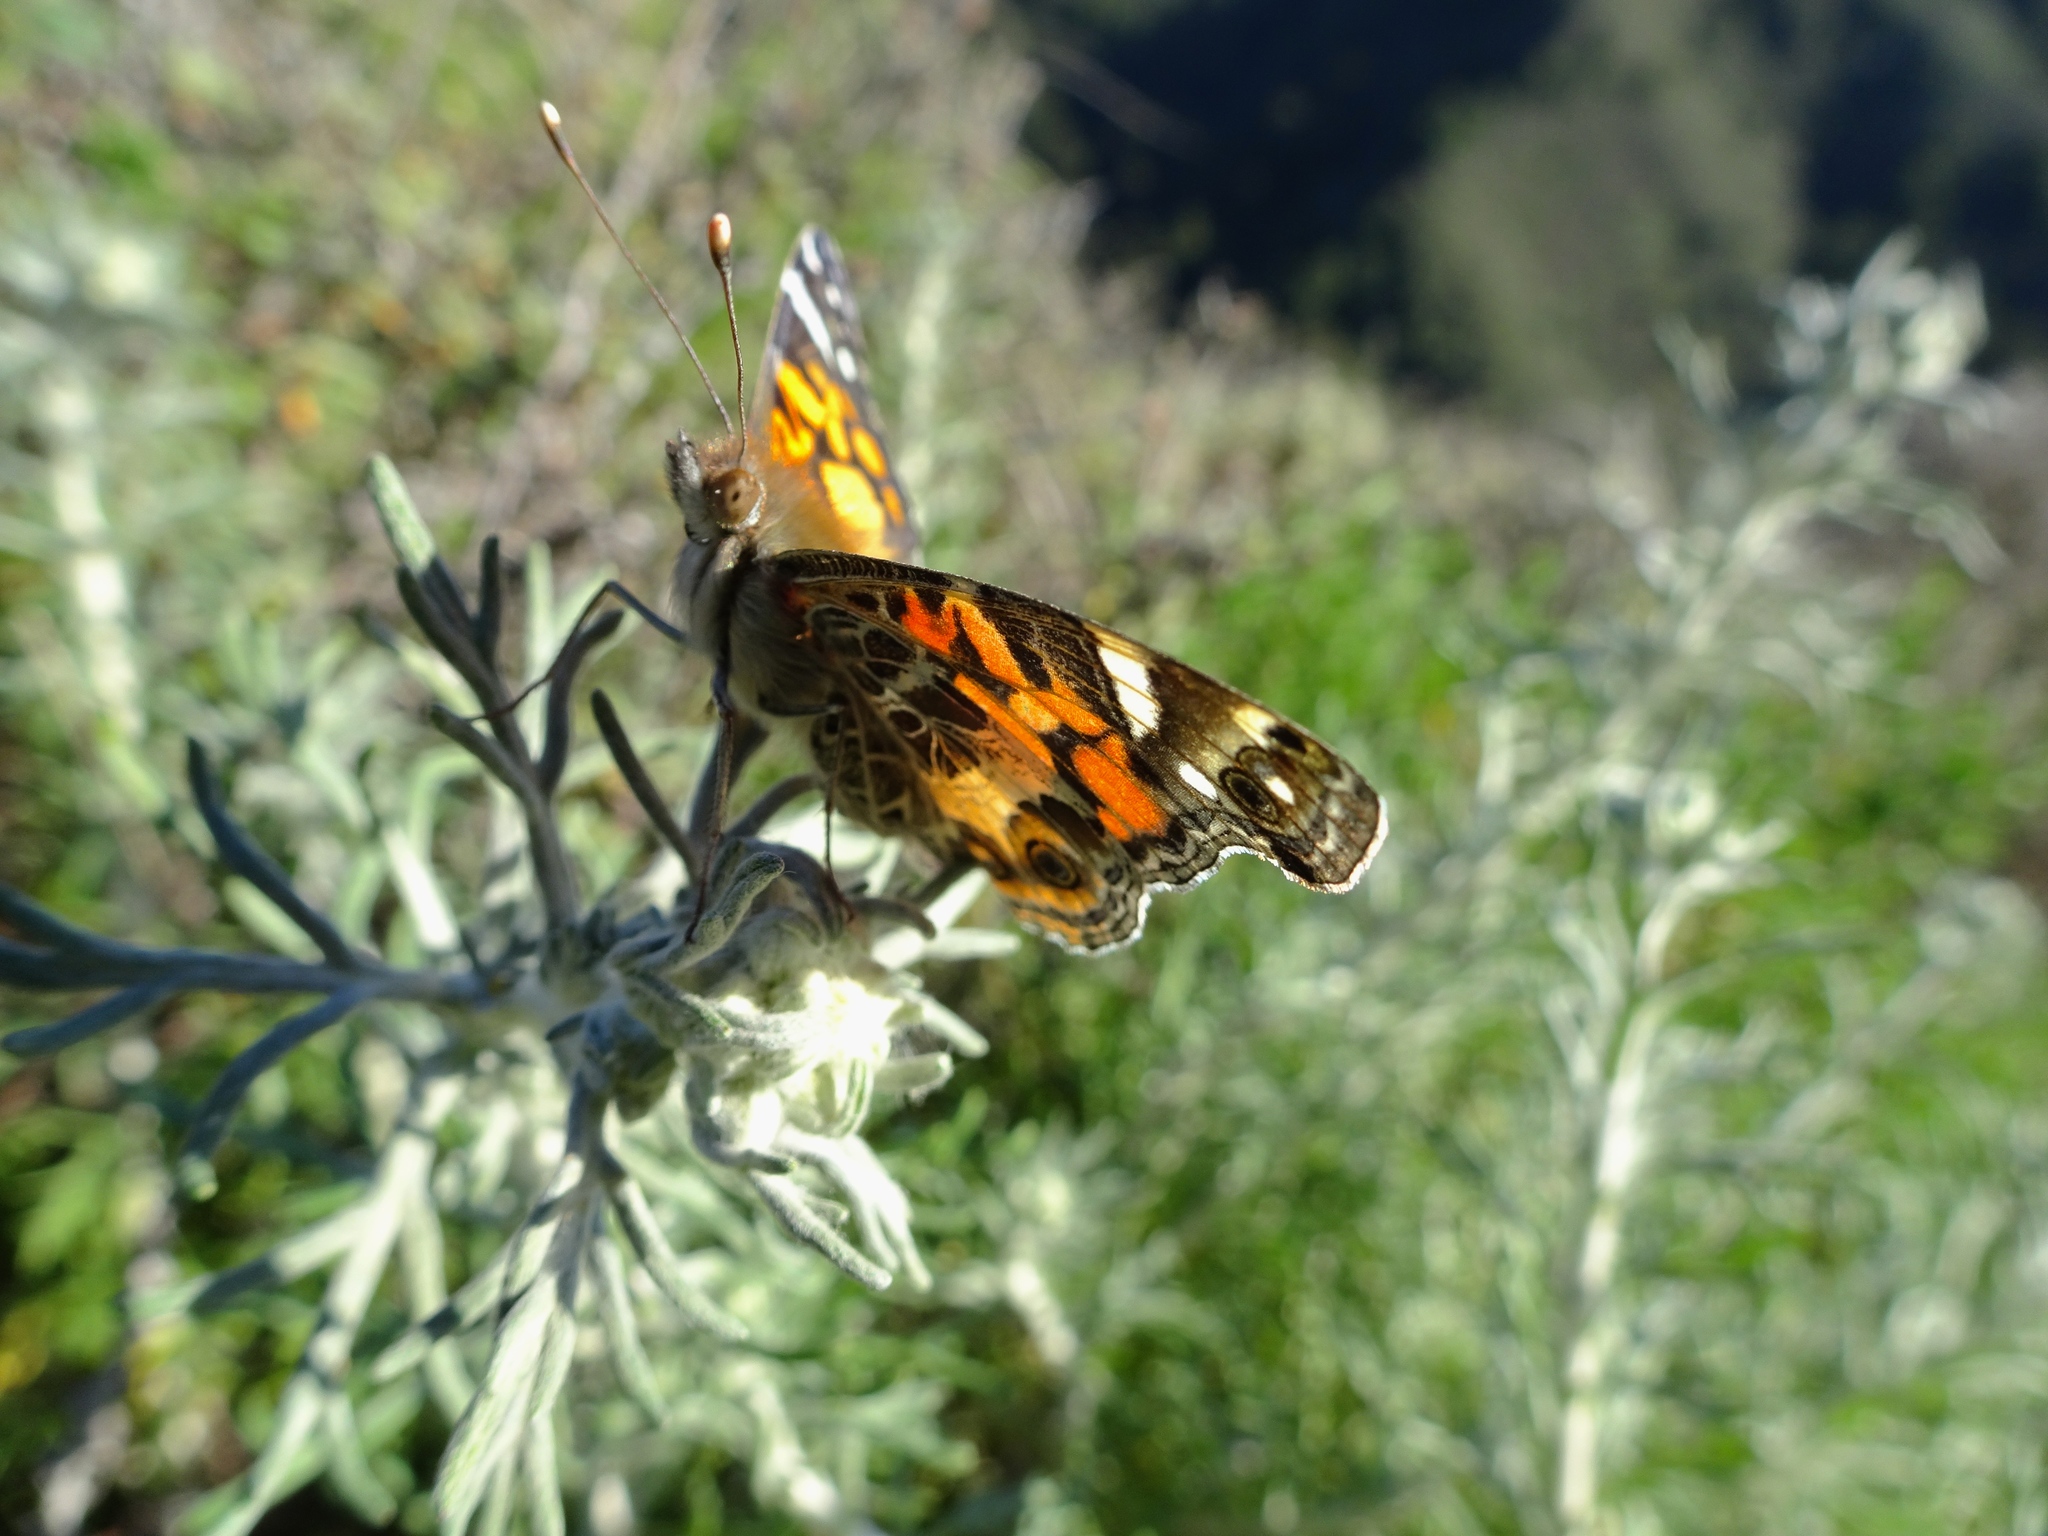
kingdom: Animalia
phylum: Arthropoda
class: Insecta
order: Lepidoptera
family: Nymphalidae
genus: Vanessa
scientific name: Vanessa cardui
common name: Painted lady
